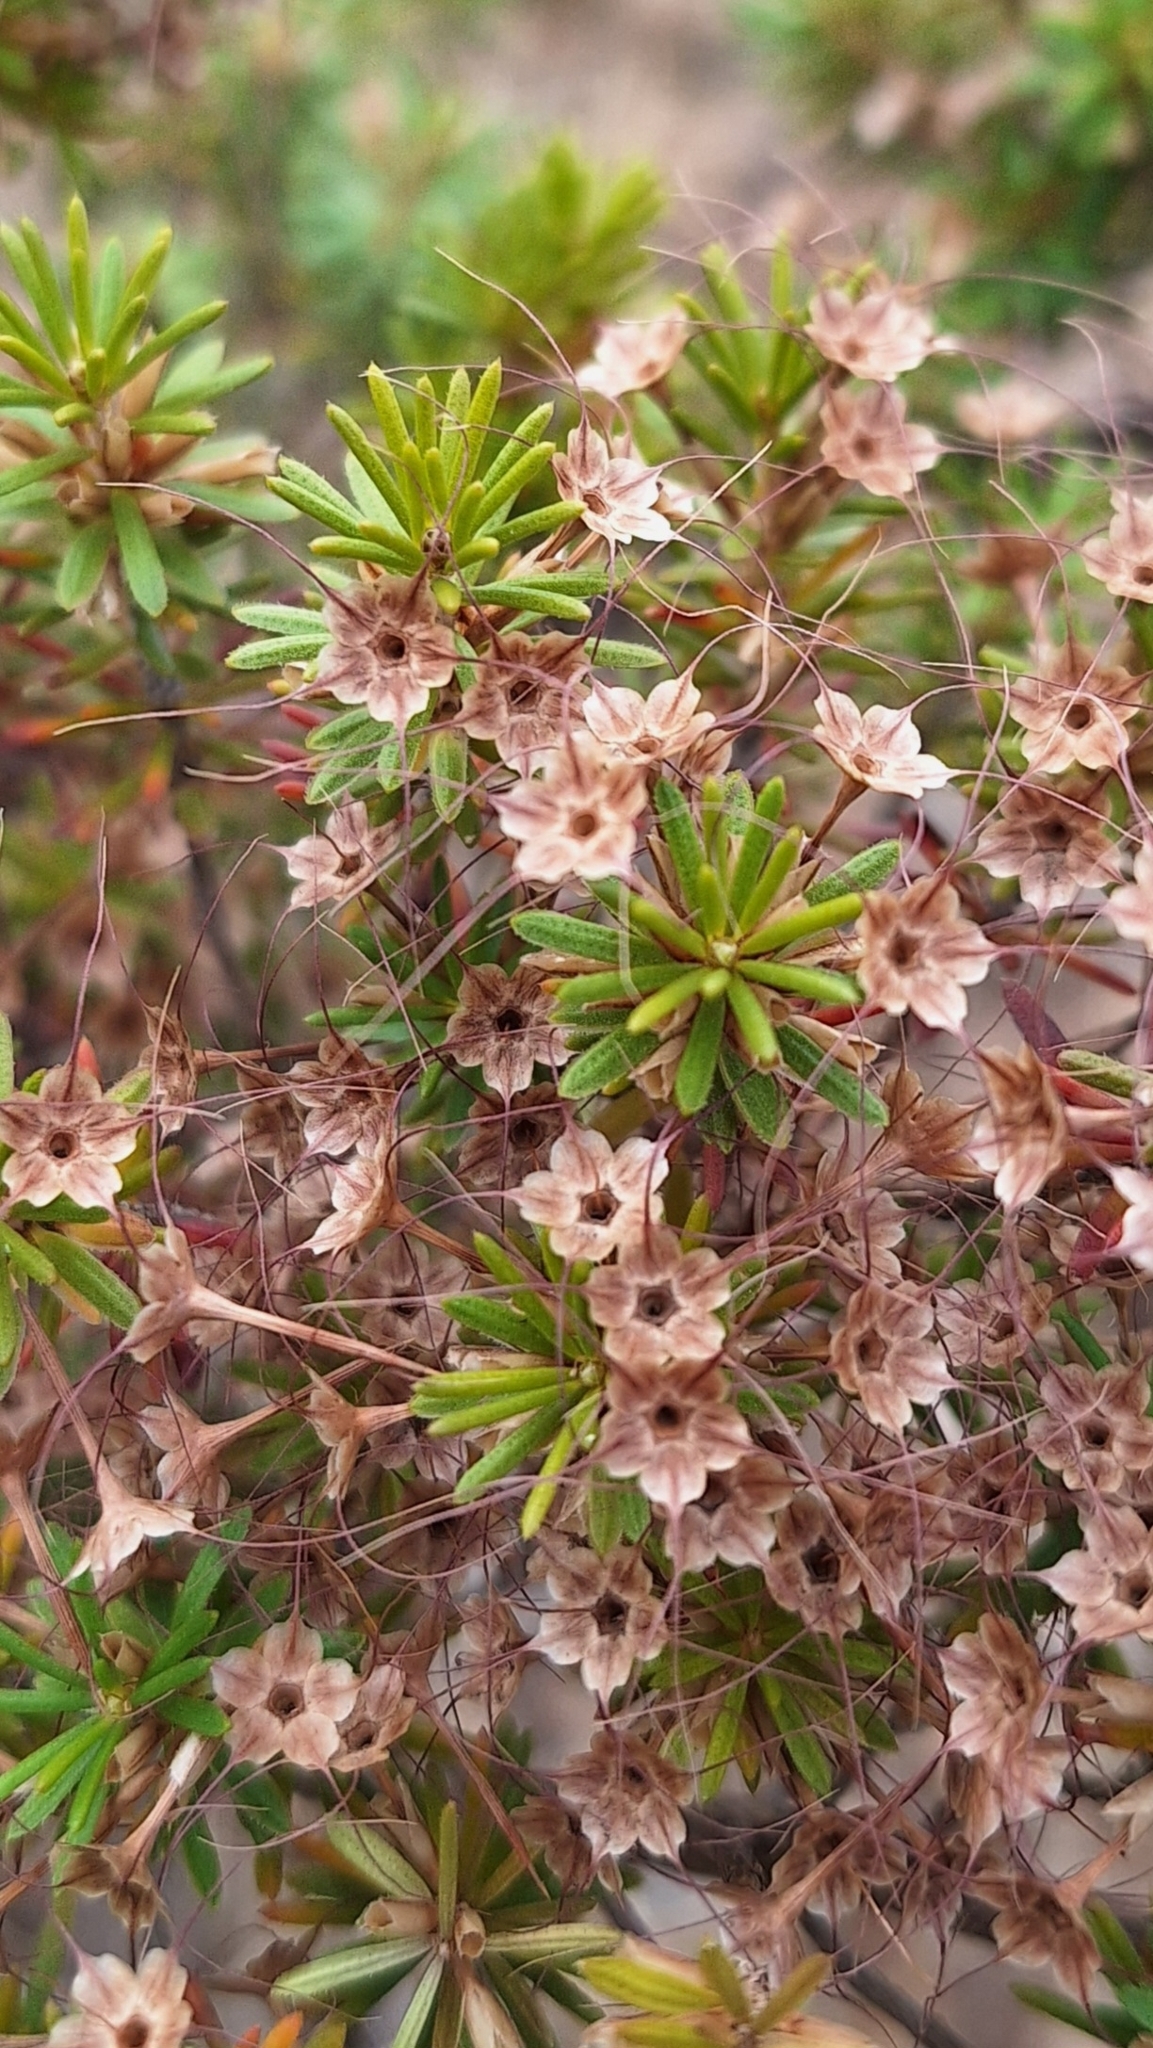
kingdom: Plantae
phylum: Tracheophyta
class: Magnoliopsida
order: Myrtales
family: Myrtaceae
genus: Calytrix
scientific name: Calytrix tetragona
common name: Common fringe myrtle
